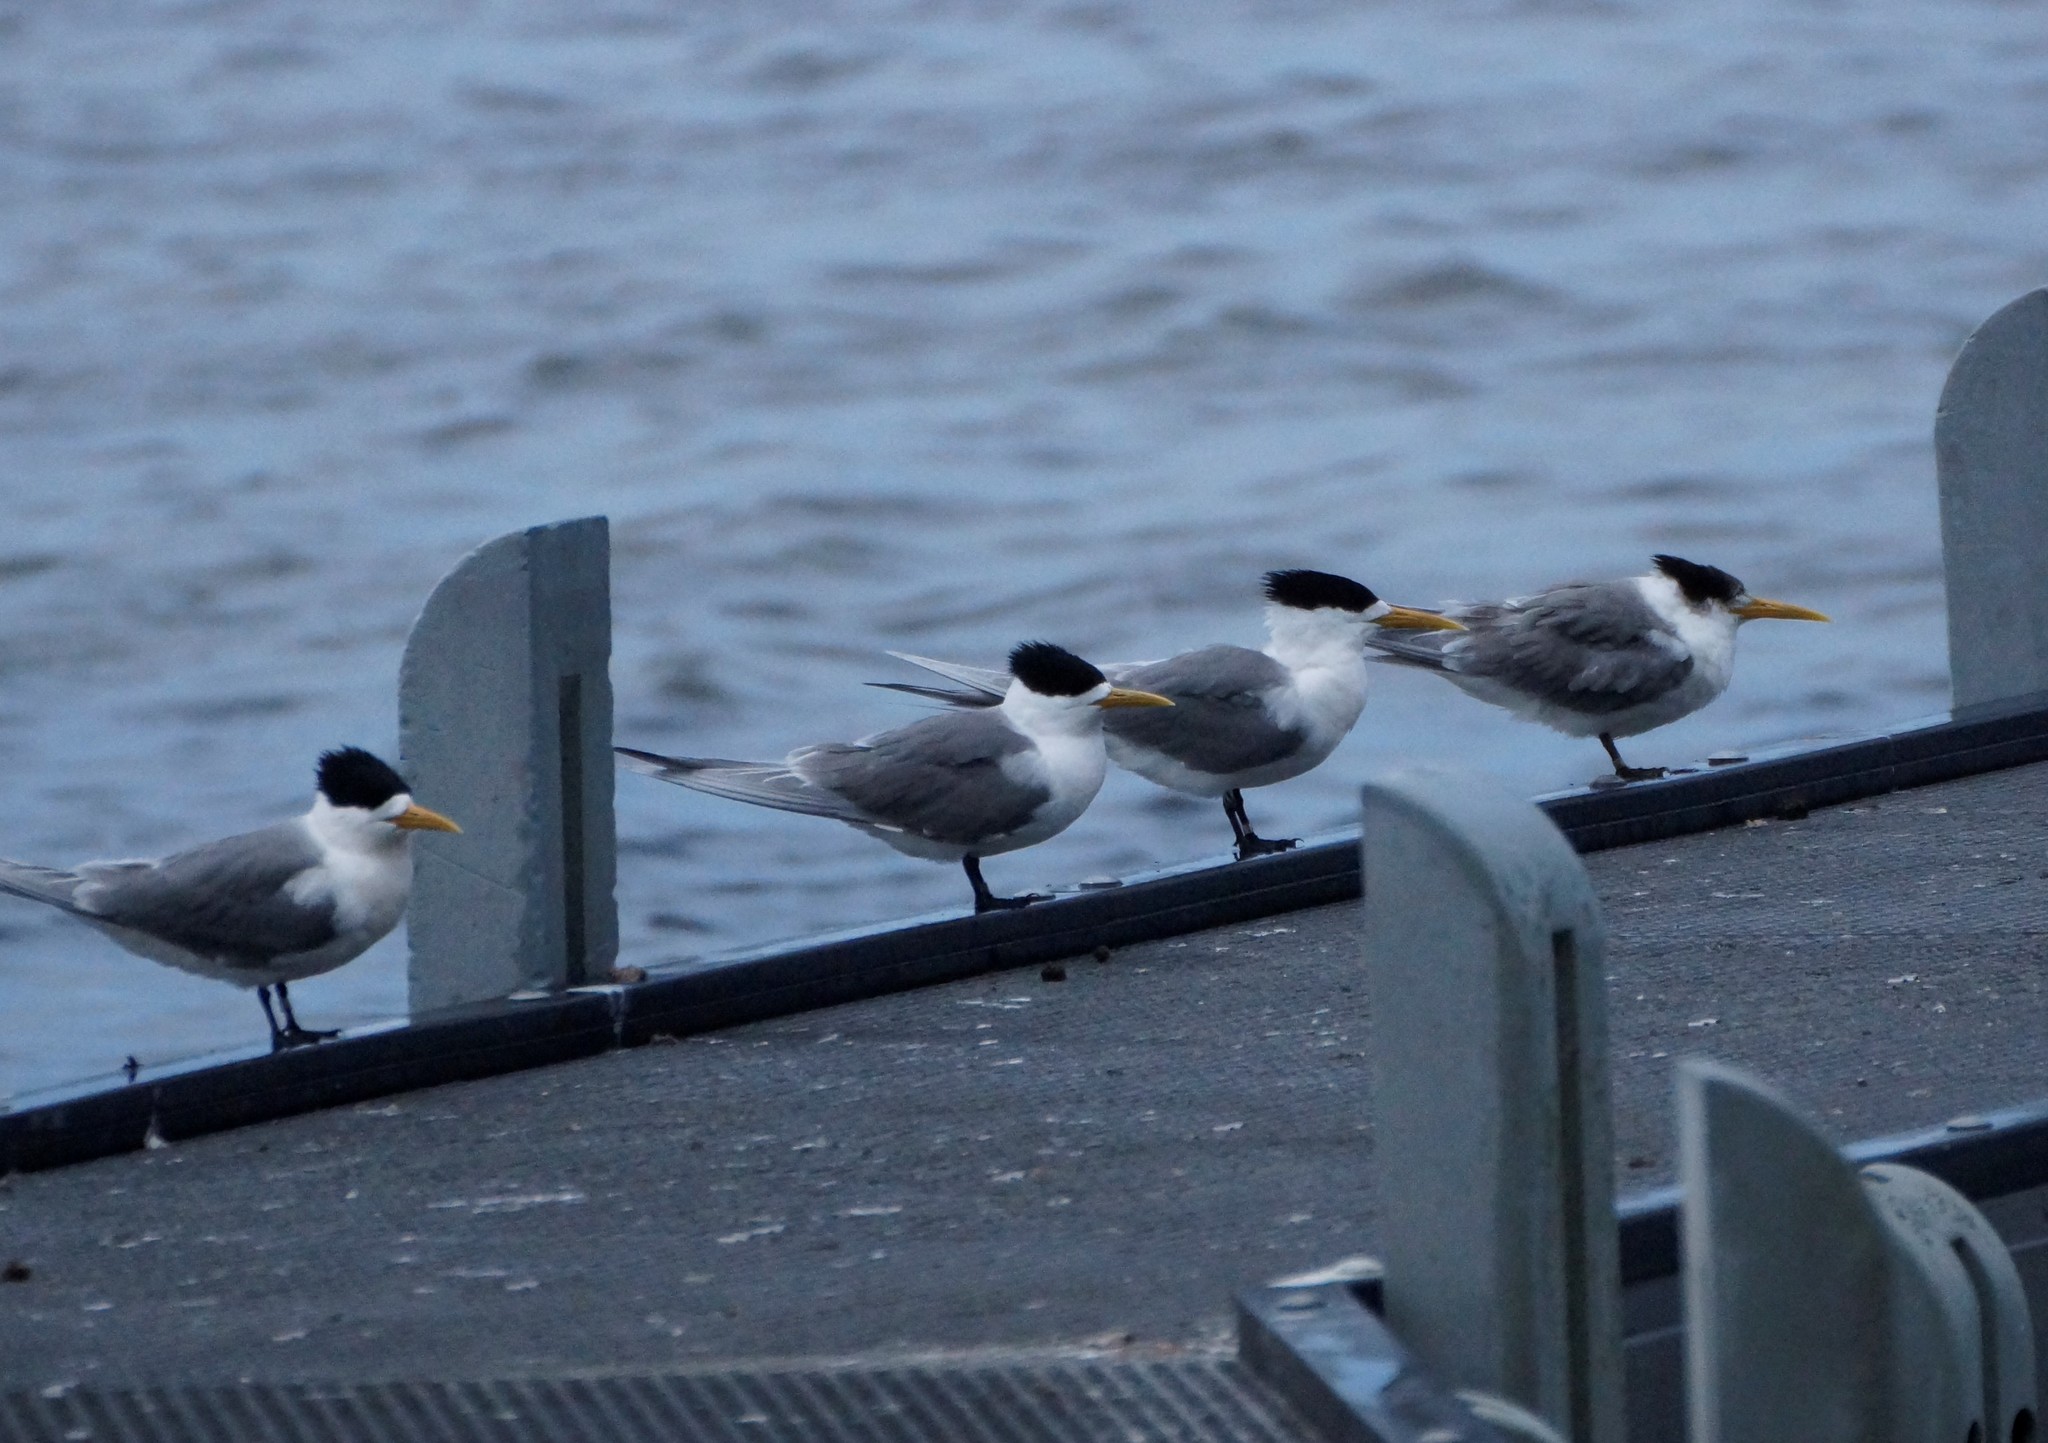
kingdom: Animalia
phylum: Chordata
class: Aves
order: Charadriiformes
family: Laridae
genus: Thalasseus
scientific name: Thalasseus bergii
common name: Greater crested tern
